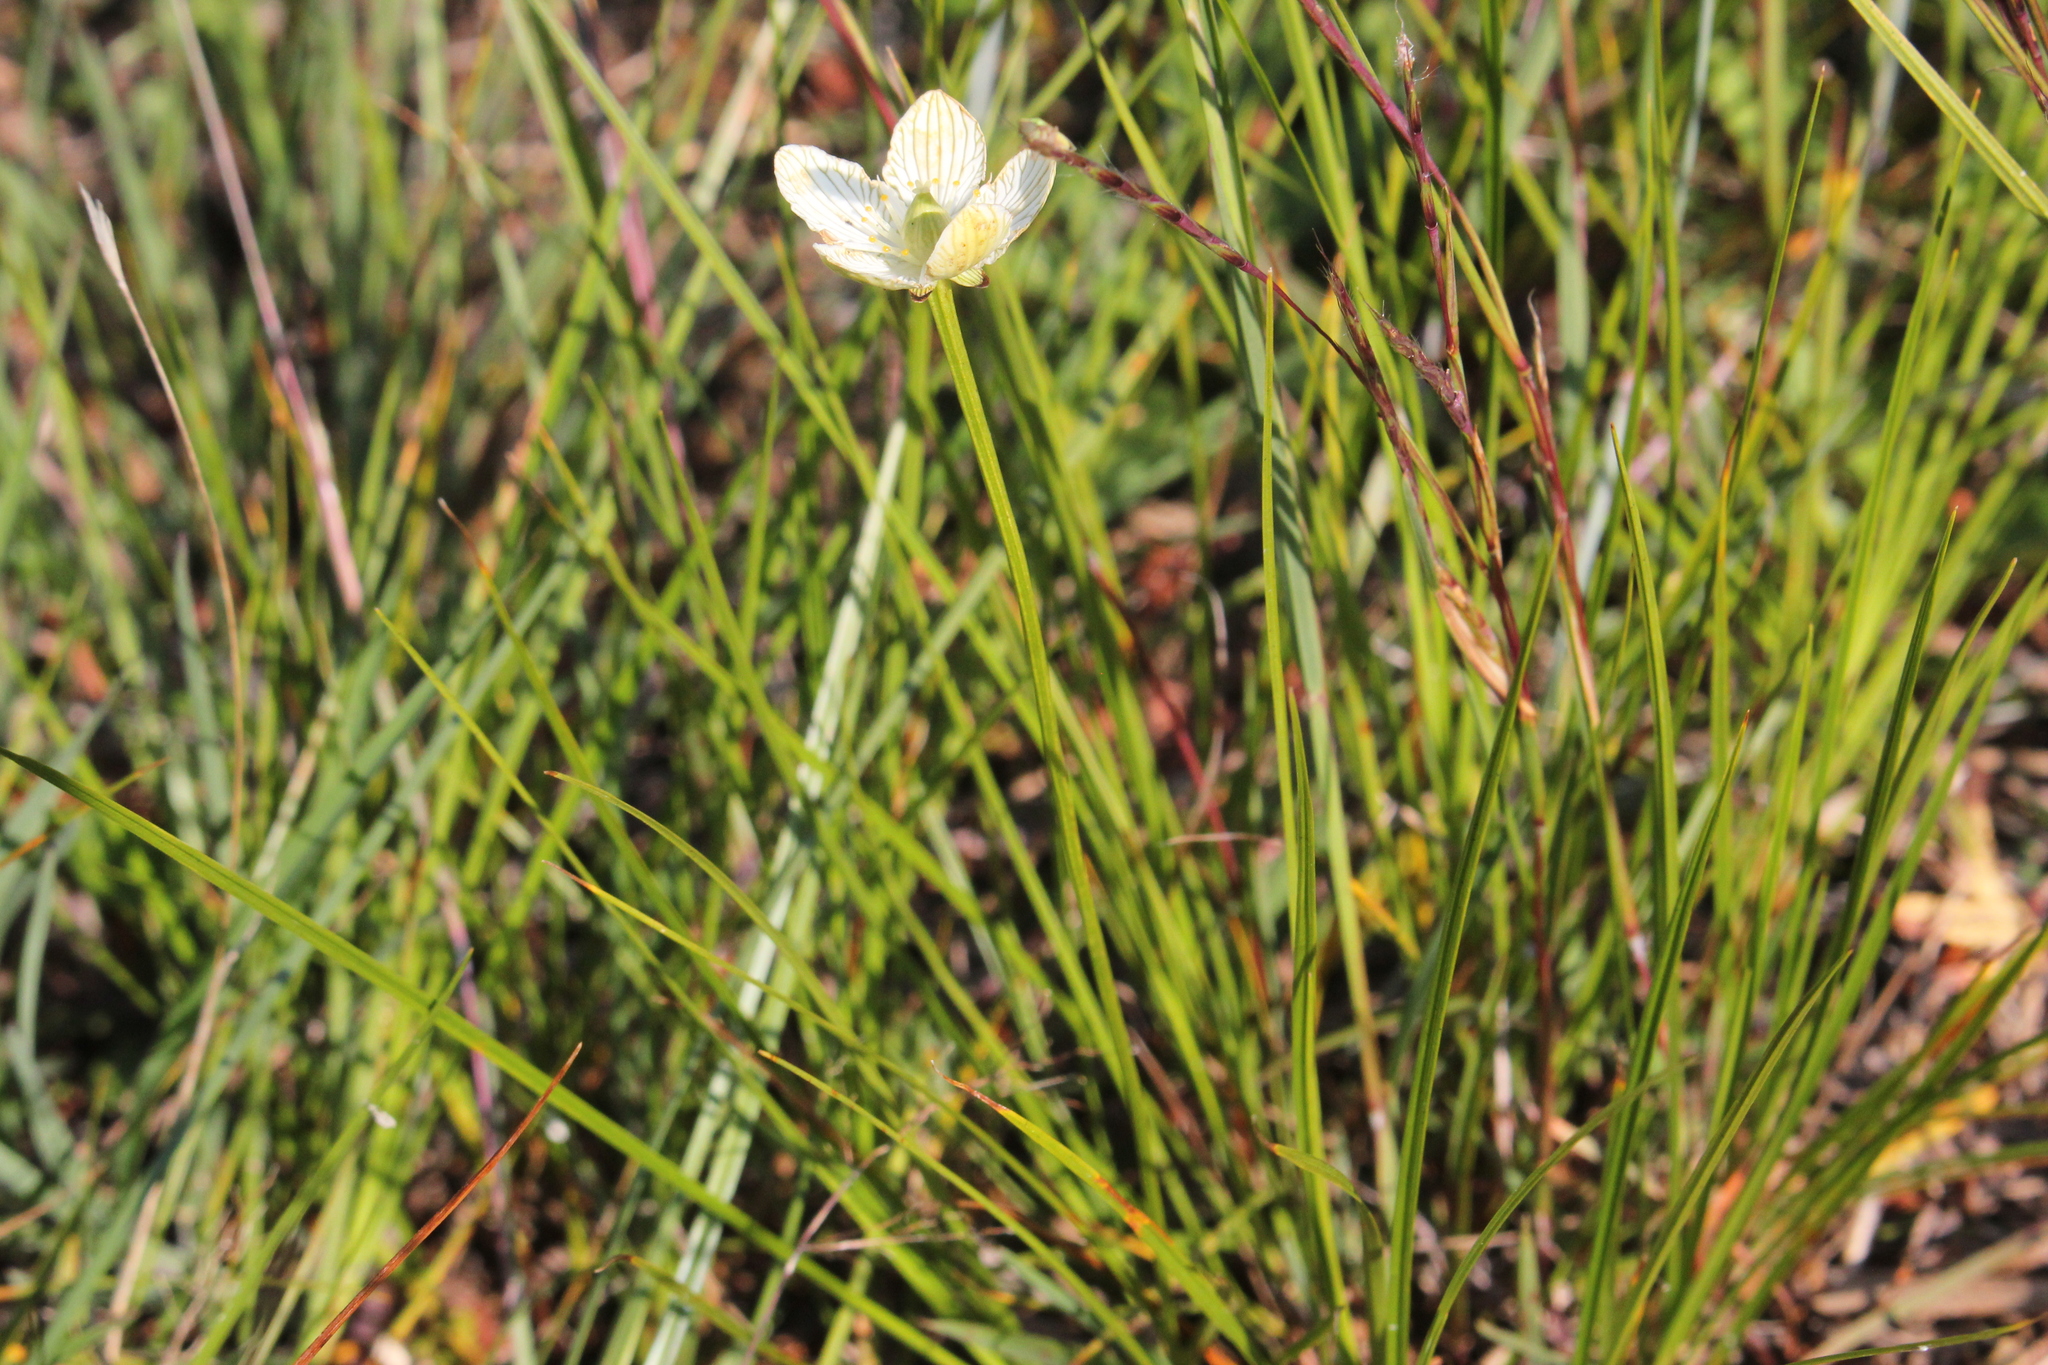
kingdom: Plantae
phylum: Tracheophyta
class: Magnoliopsida
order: Celastrales
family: Parnassiaceae
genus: Parnassia
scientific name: Parnassia glauca
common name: American grass-of-parnassus
